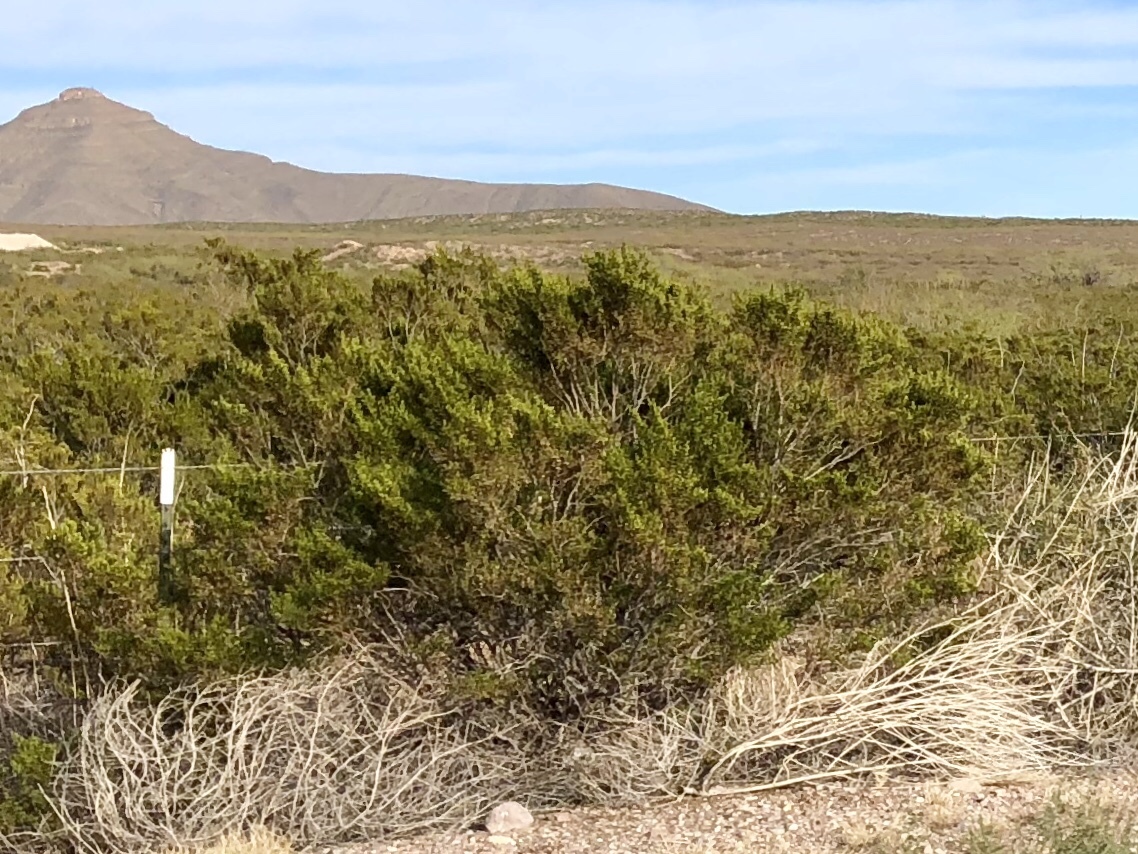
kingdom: Plantae
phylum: Tracheophyta
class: Magnoliopsida
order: Zygophyllales
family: Zygophyllaceae
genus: Larrea
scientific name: Larrea tridentata
